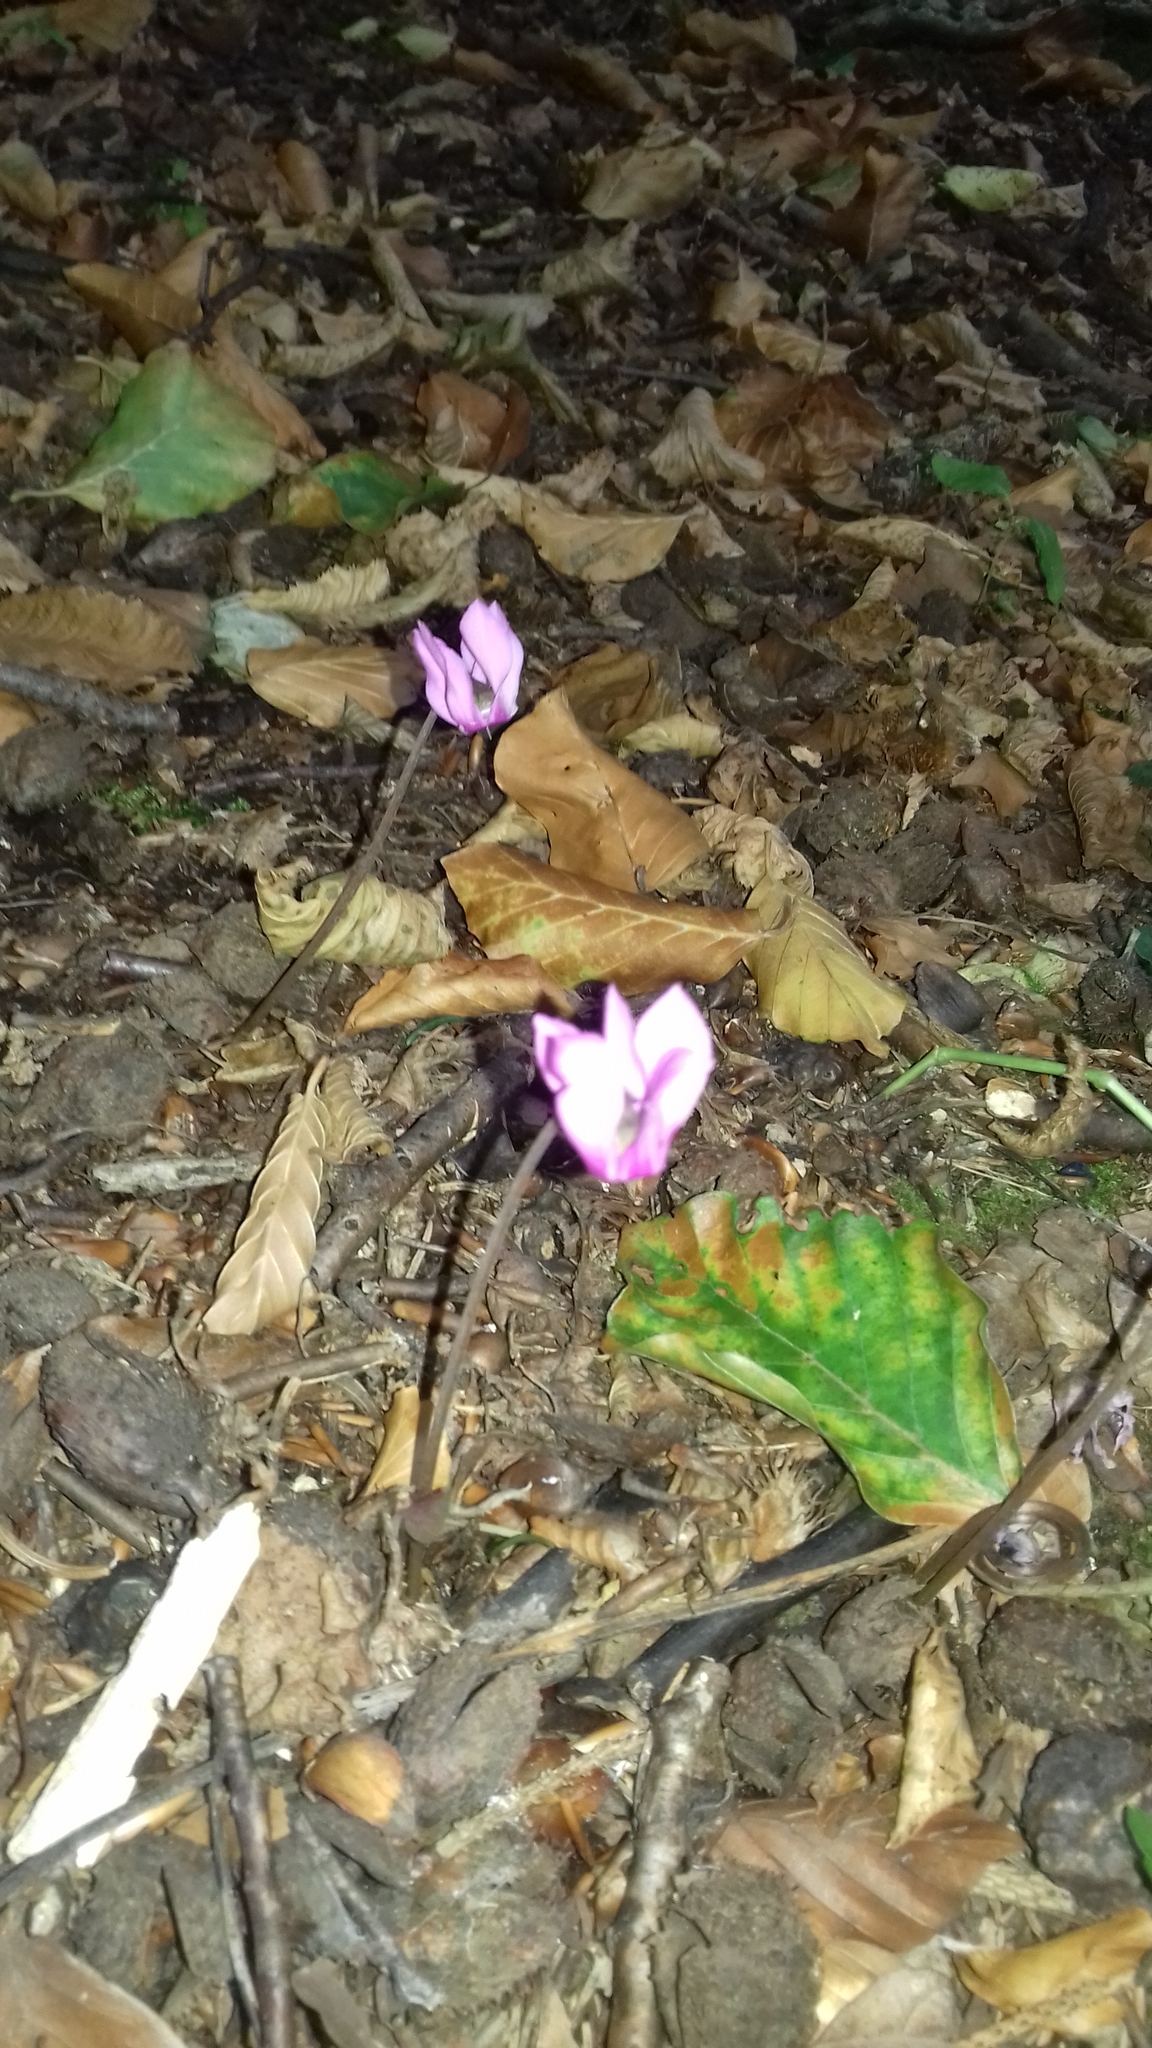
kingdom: Plantae
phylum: Tracheophyta
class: Magnoliopsida
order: Ericales
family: Primulaceae
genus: Cyclamen
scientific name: Cyclamen purpurascens
